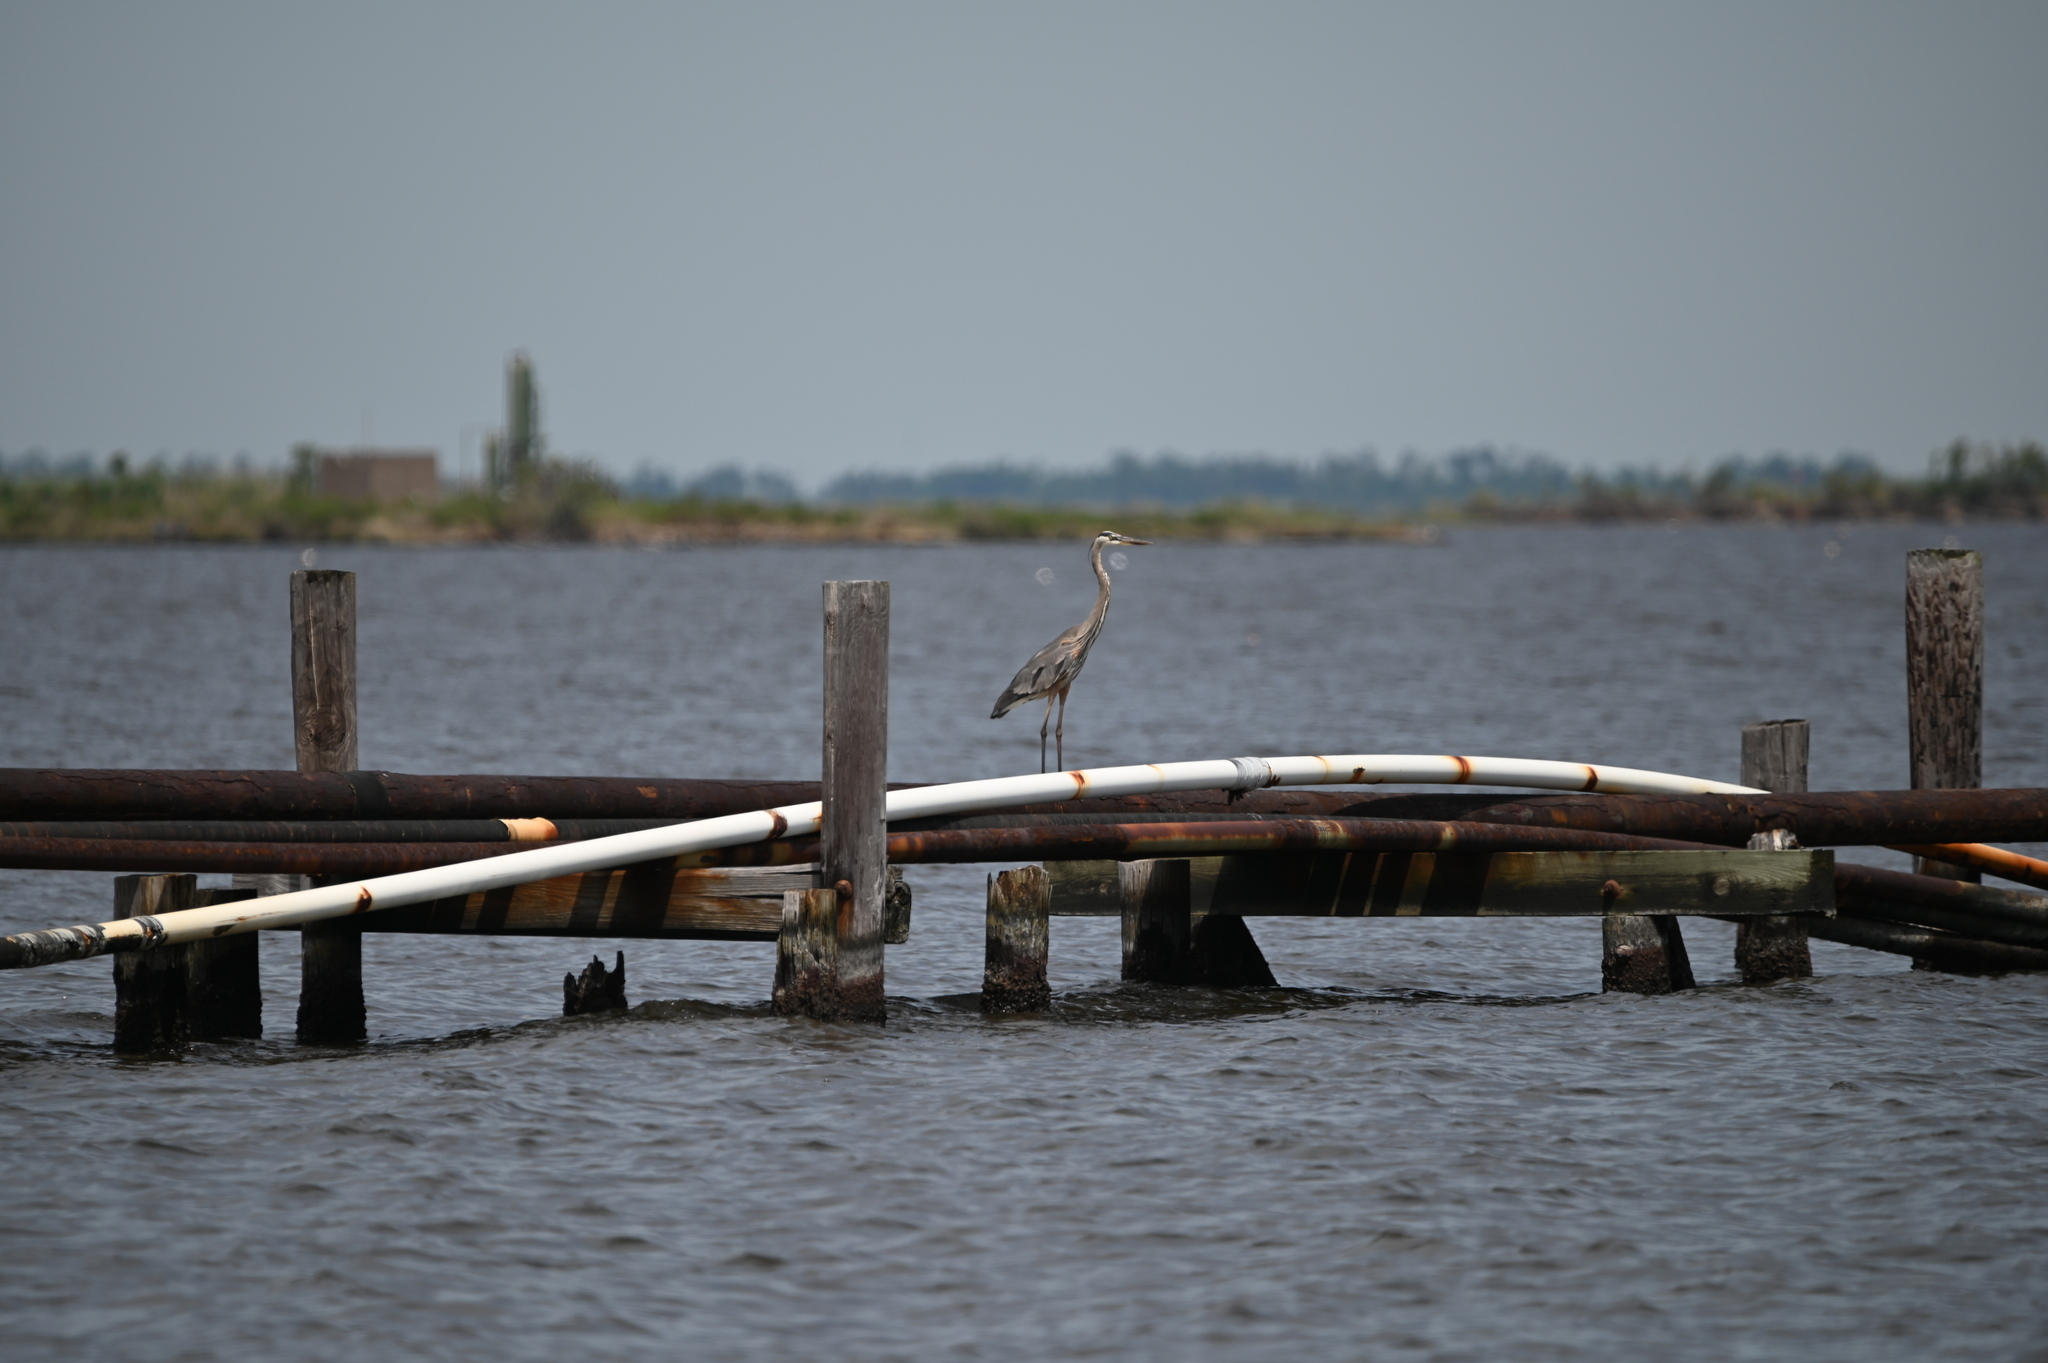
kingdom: Animalia
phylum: Chordata
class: Aves
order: Pelecaniformes
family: Ardeidae
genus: Ardea
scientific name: Ardea herodias
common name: Great blue heron
